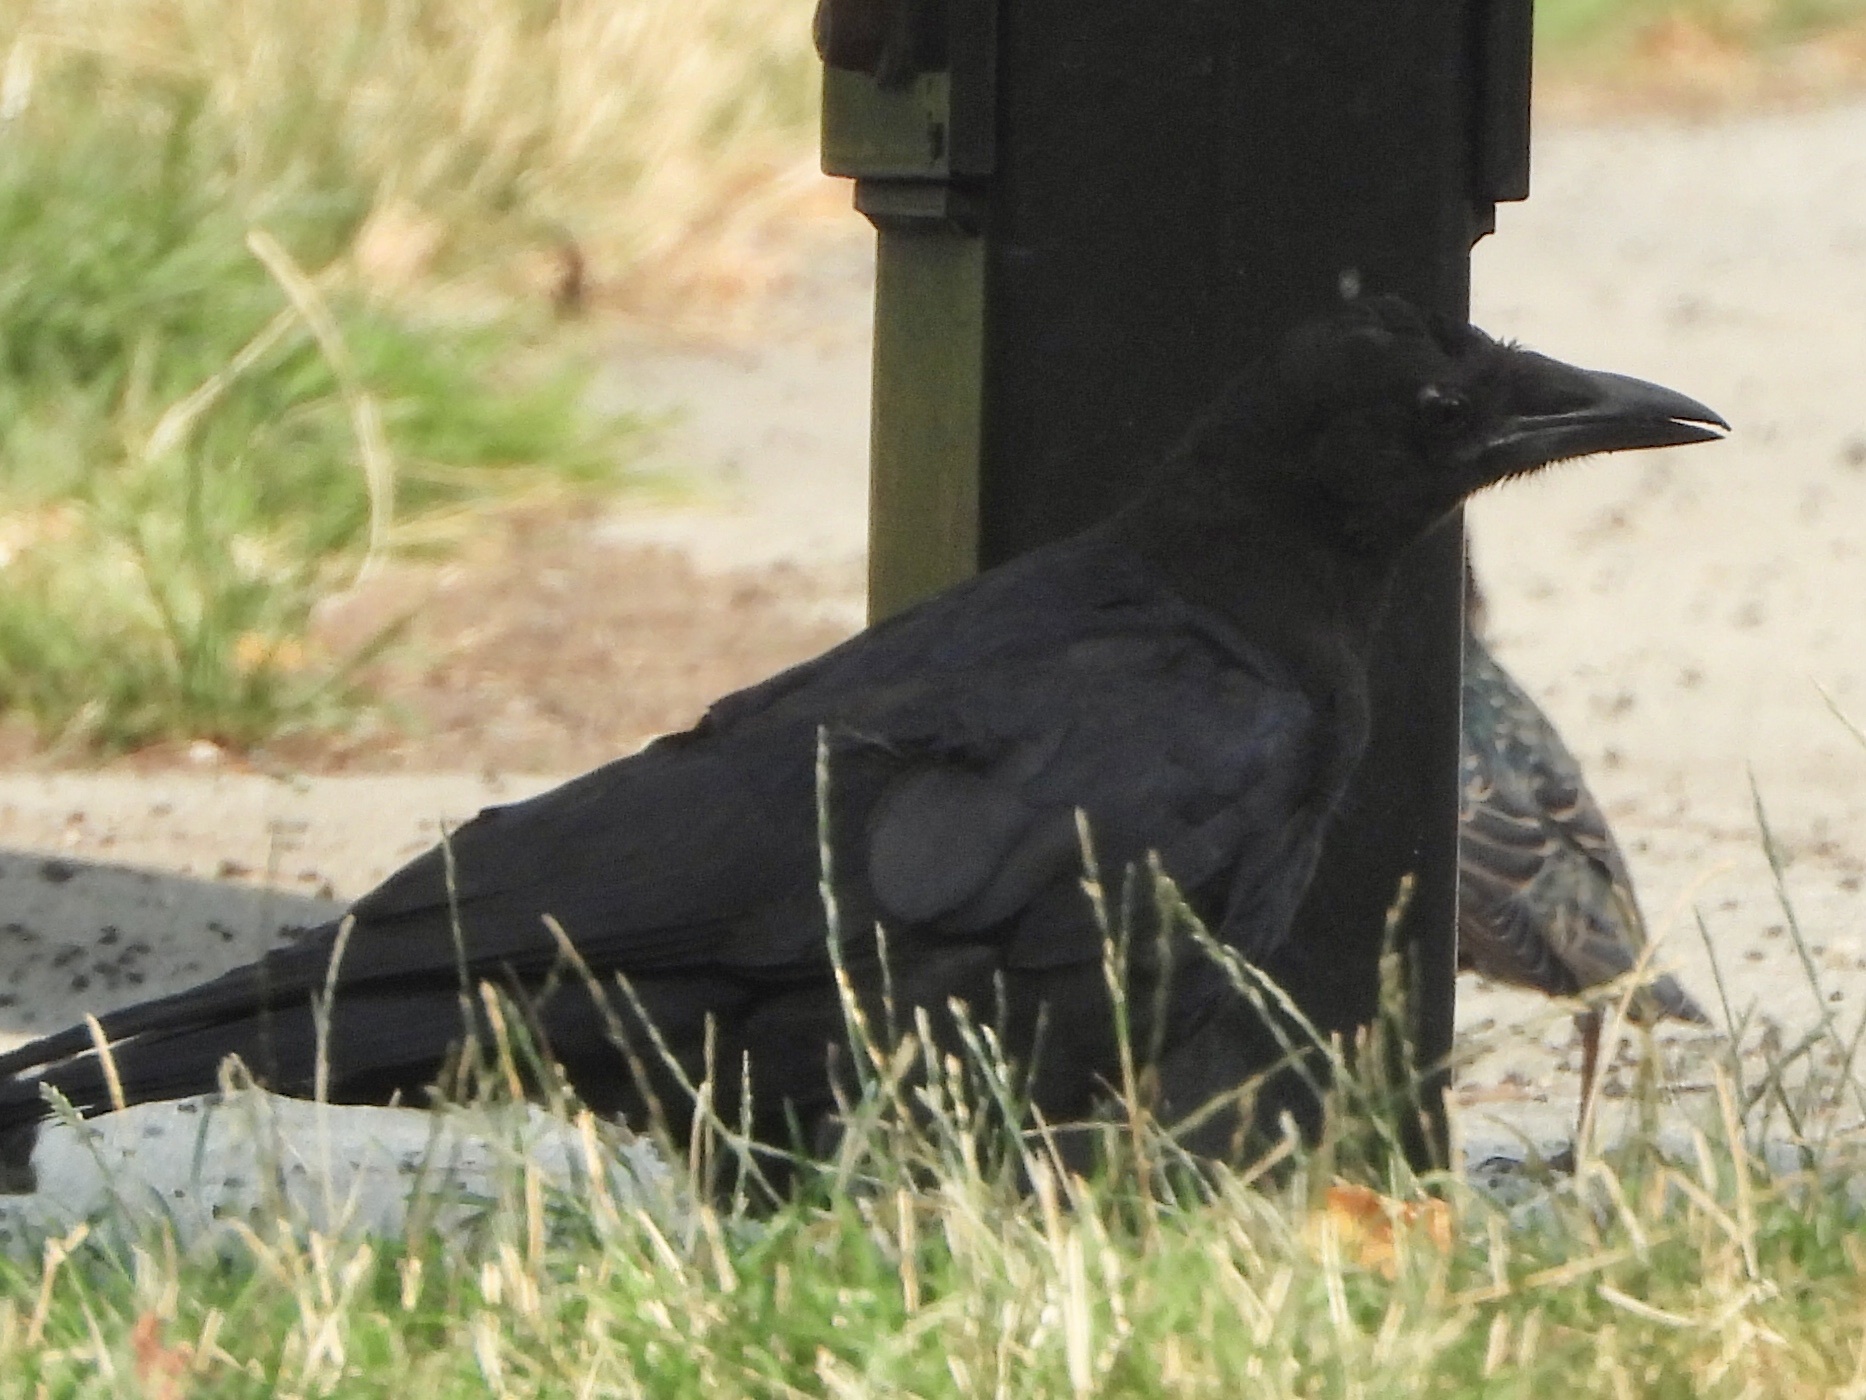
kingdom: Animalia
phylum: Chordata
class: Aves
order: Passeriformes
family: Corvidae
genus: Corvus
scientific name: Corvus brachyrhynchos
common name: American crow
